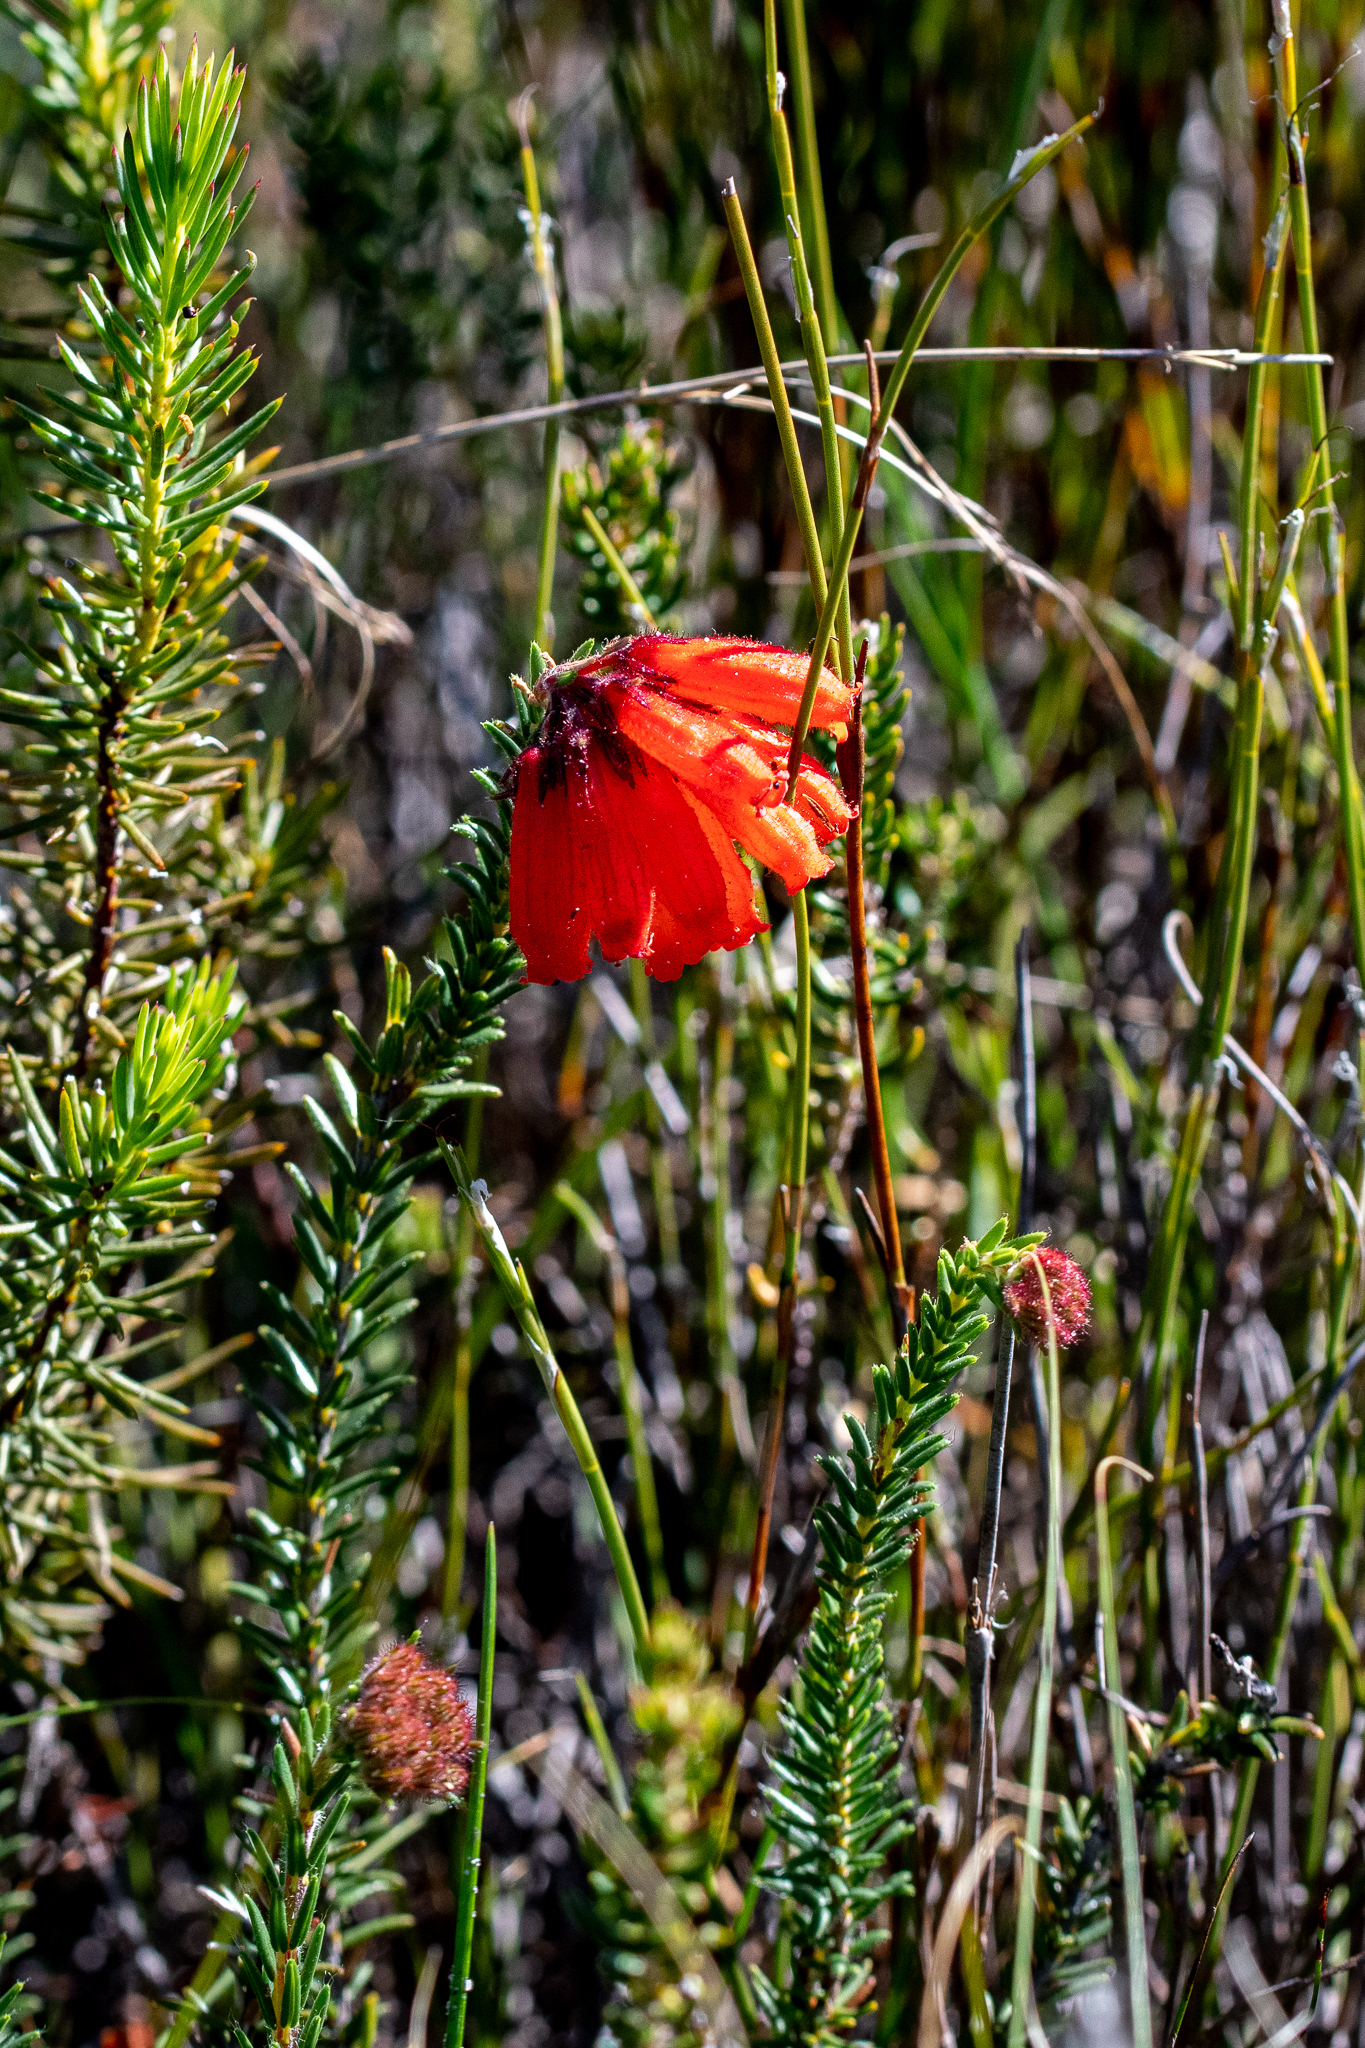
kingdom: Plantae
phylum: Tracheophyta
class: Magnoliopsida
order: Ericales
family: Ericaceae
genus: Erica
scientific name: Erica cerinthoides
